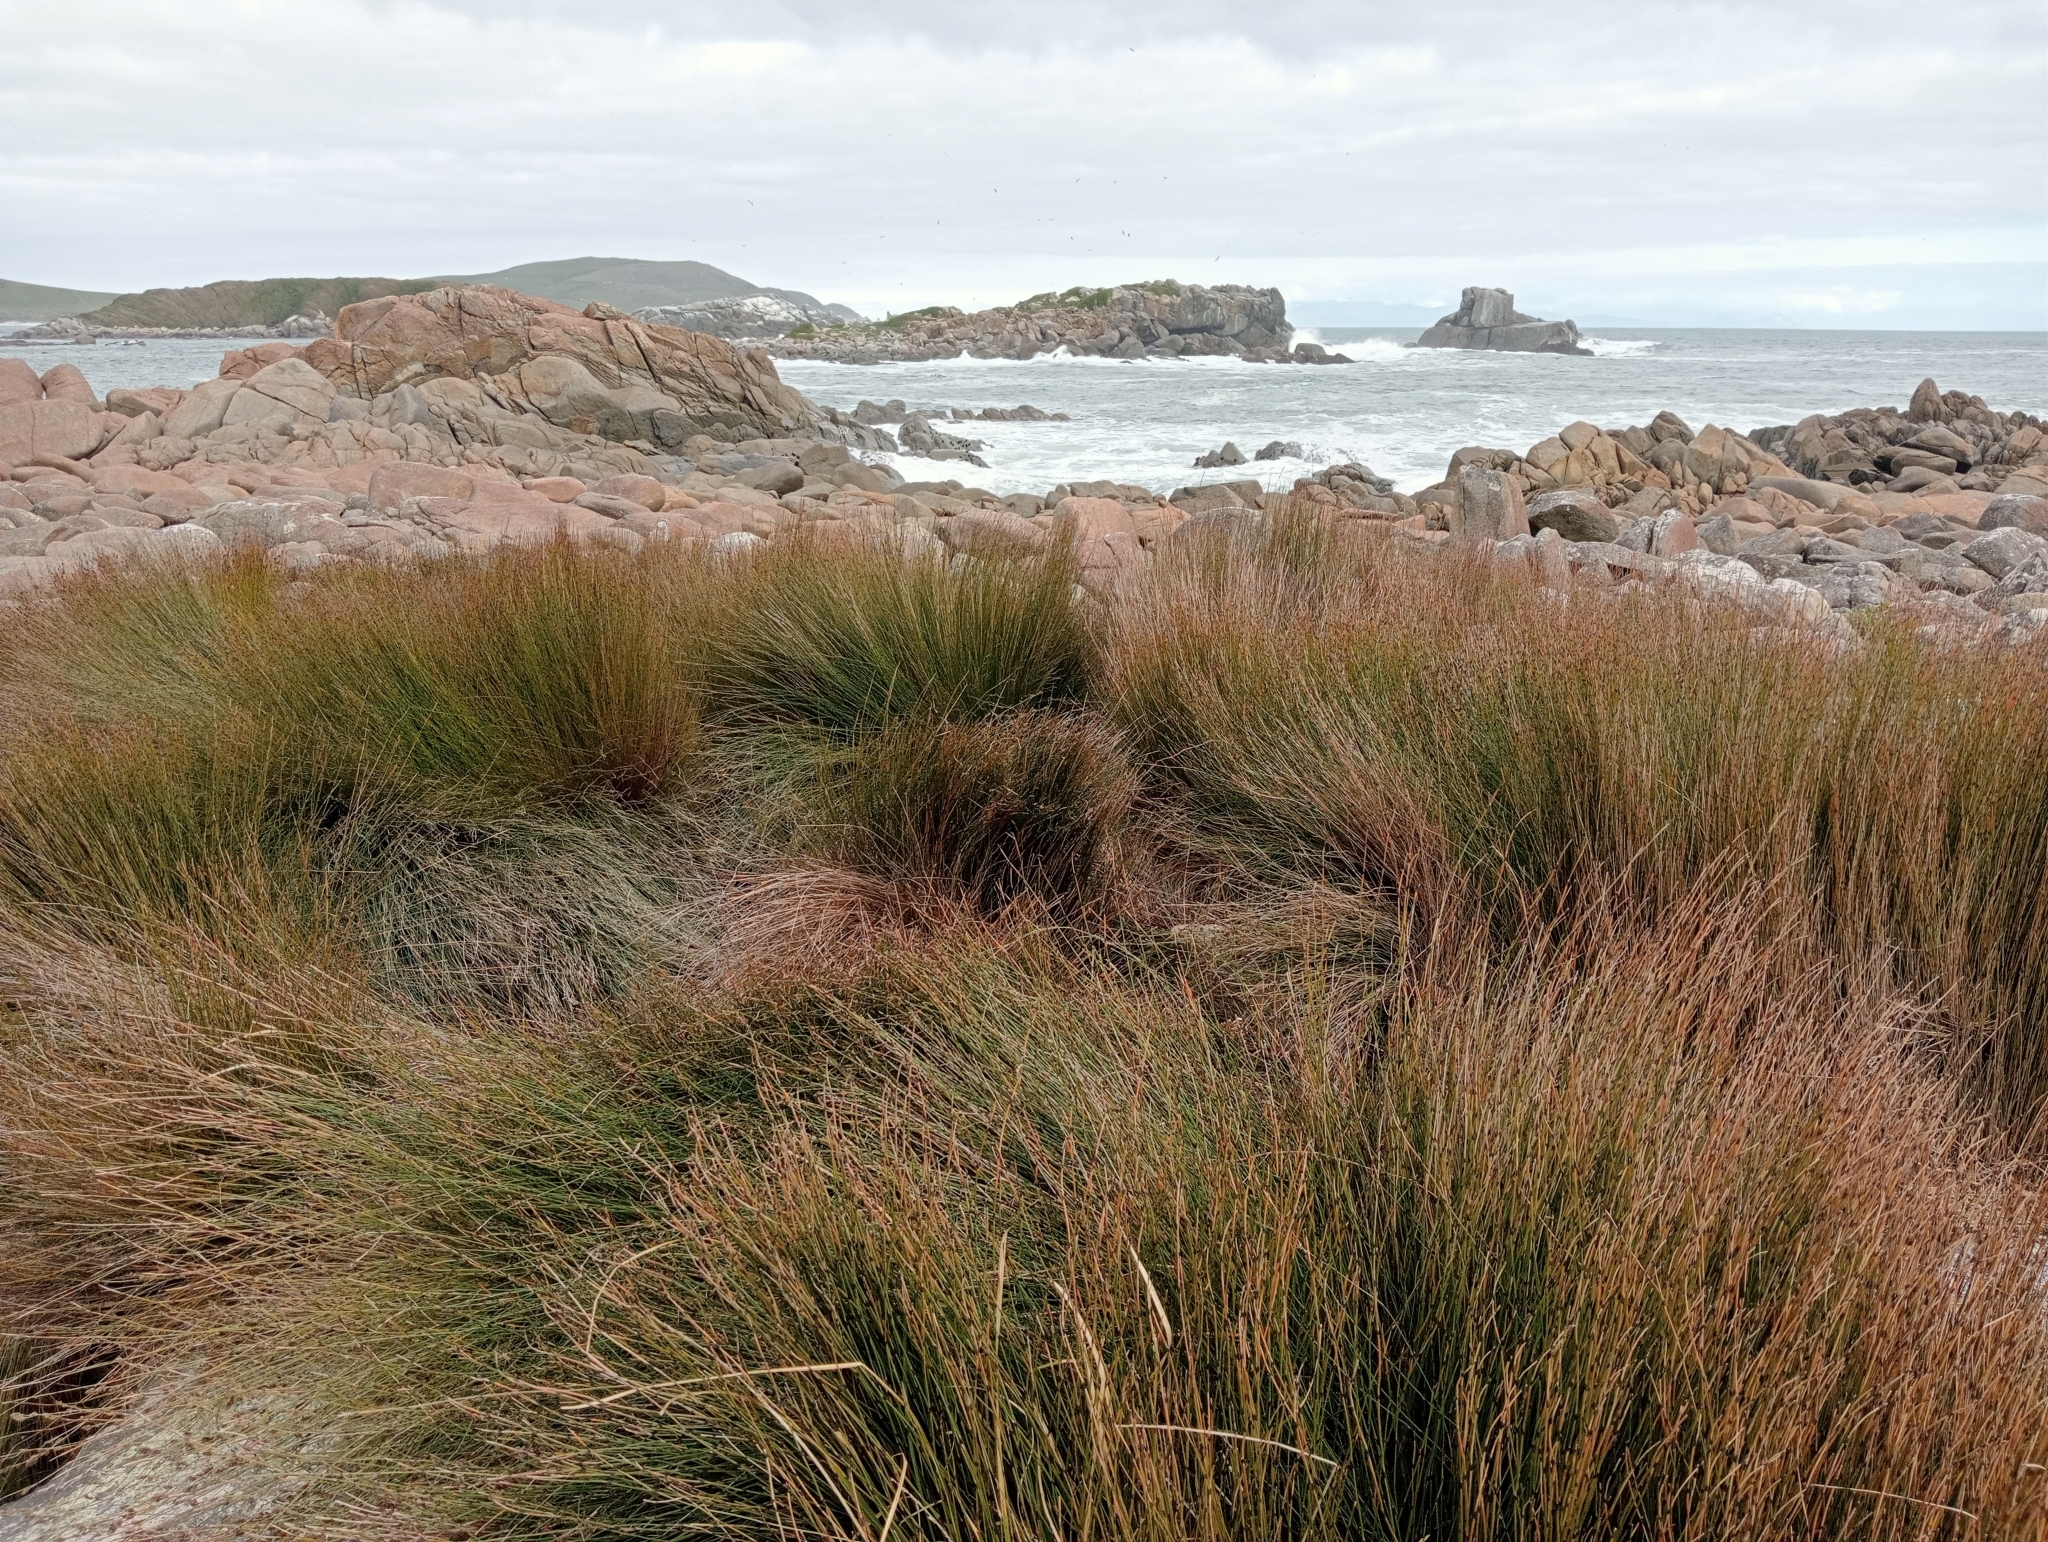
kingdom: Plantae
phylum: Tracheophyta
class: Liliopsida
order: Poales
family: Restionaceae
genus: Apodasmia
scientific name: Apodasmia similis
